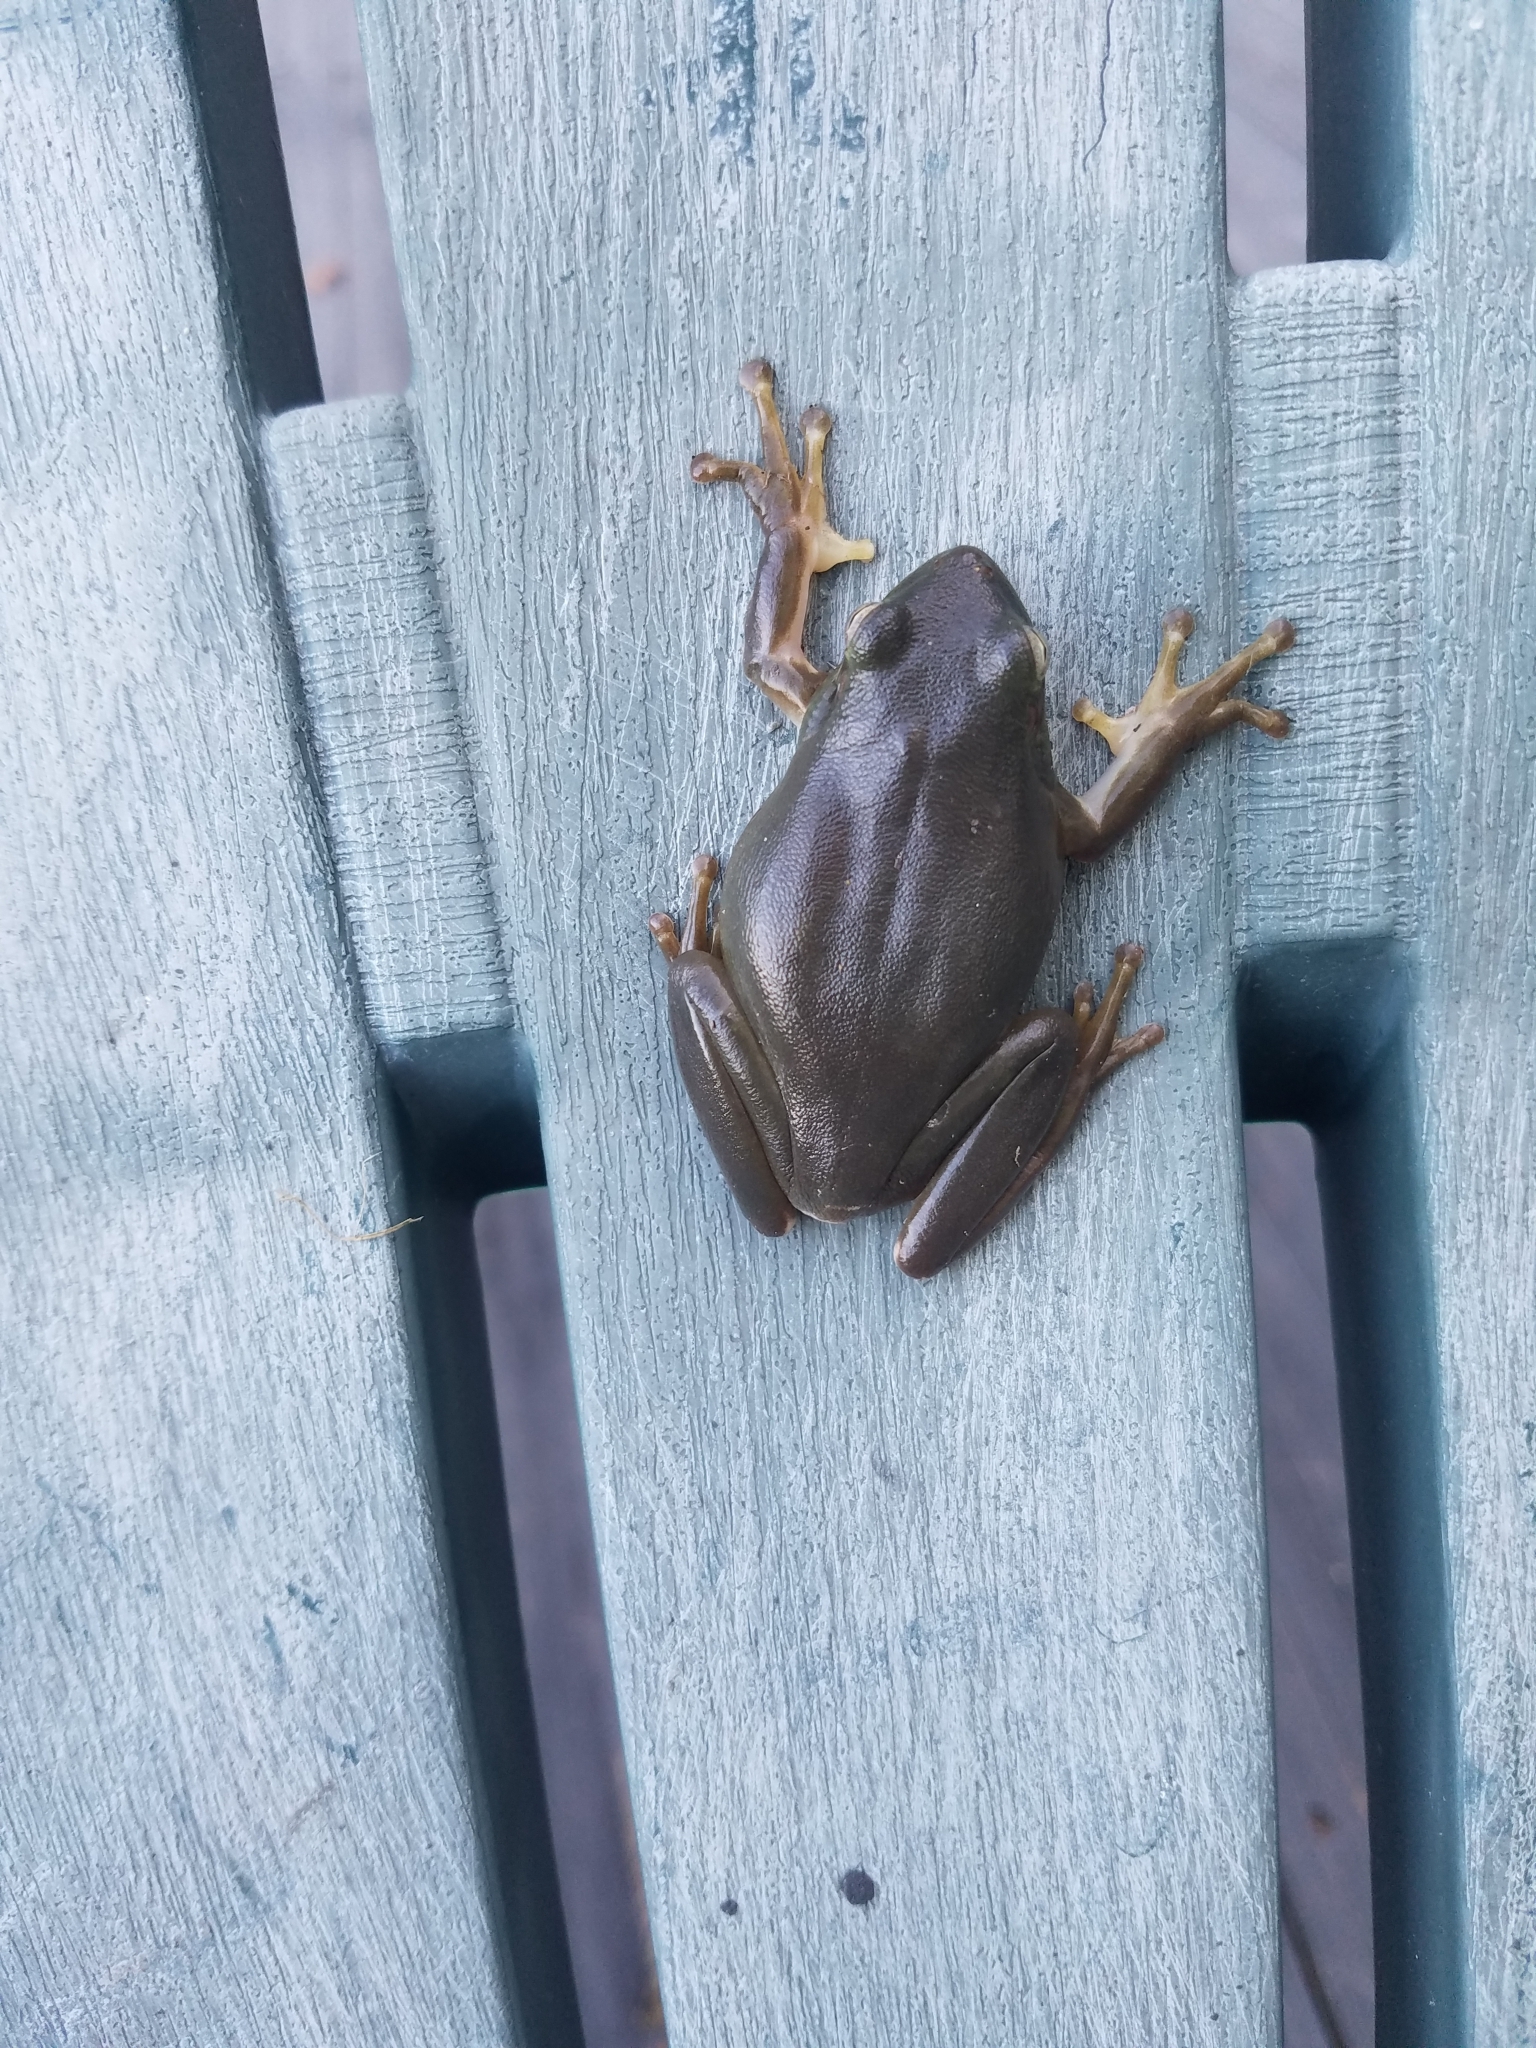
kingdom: Animalia
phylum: Chordata
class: Amphibia
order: Anura
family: Hylidae
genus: Dryophytes
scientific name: Dryophytes cinereus
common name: Green treefrog
